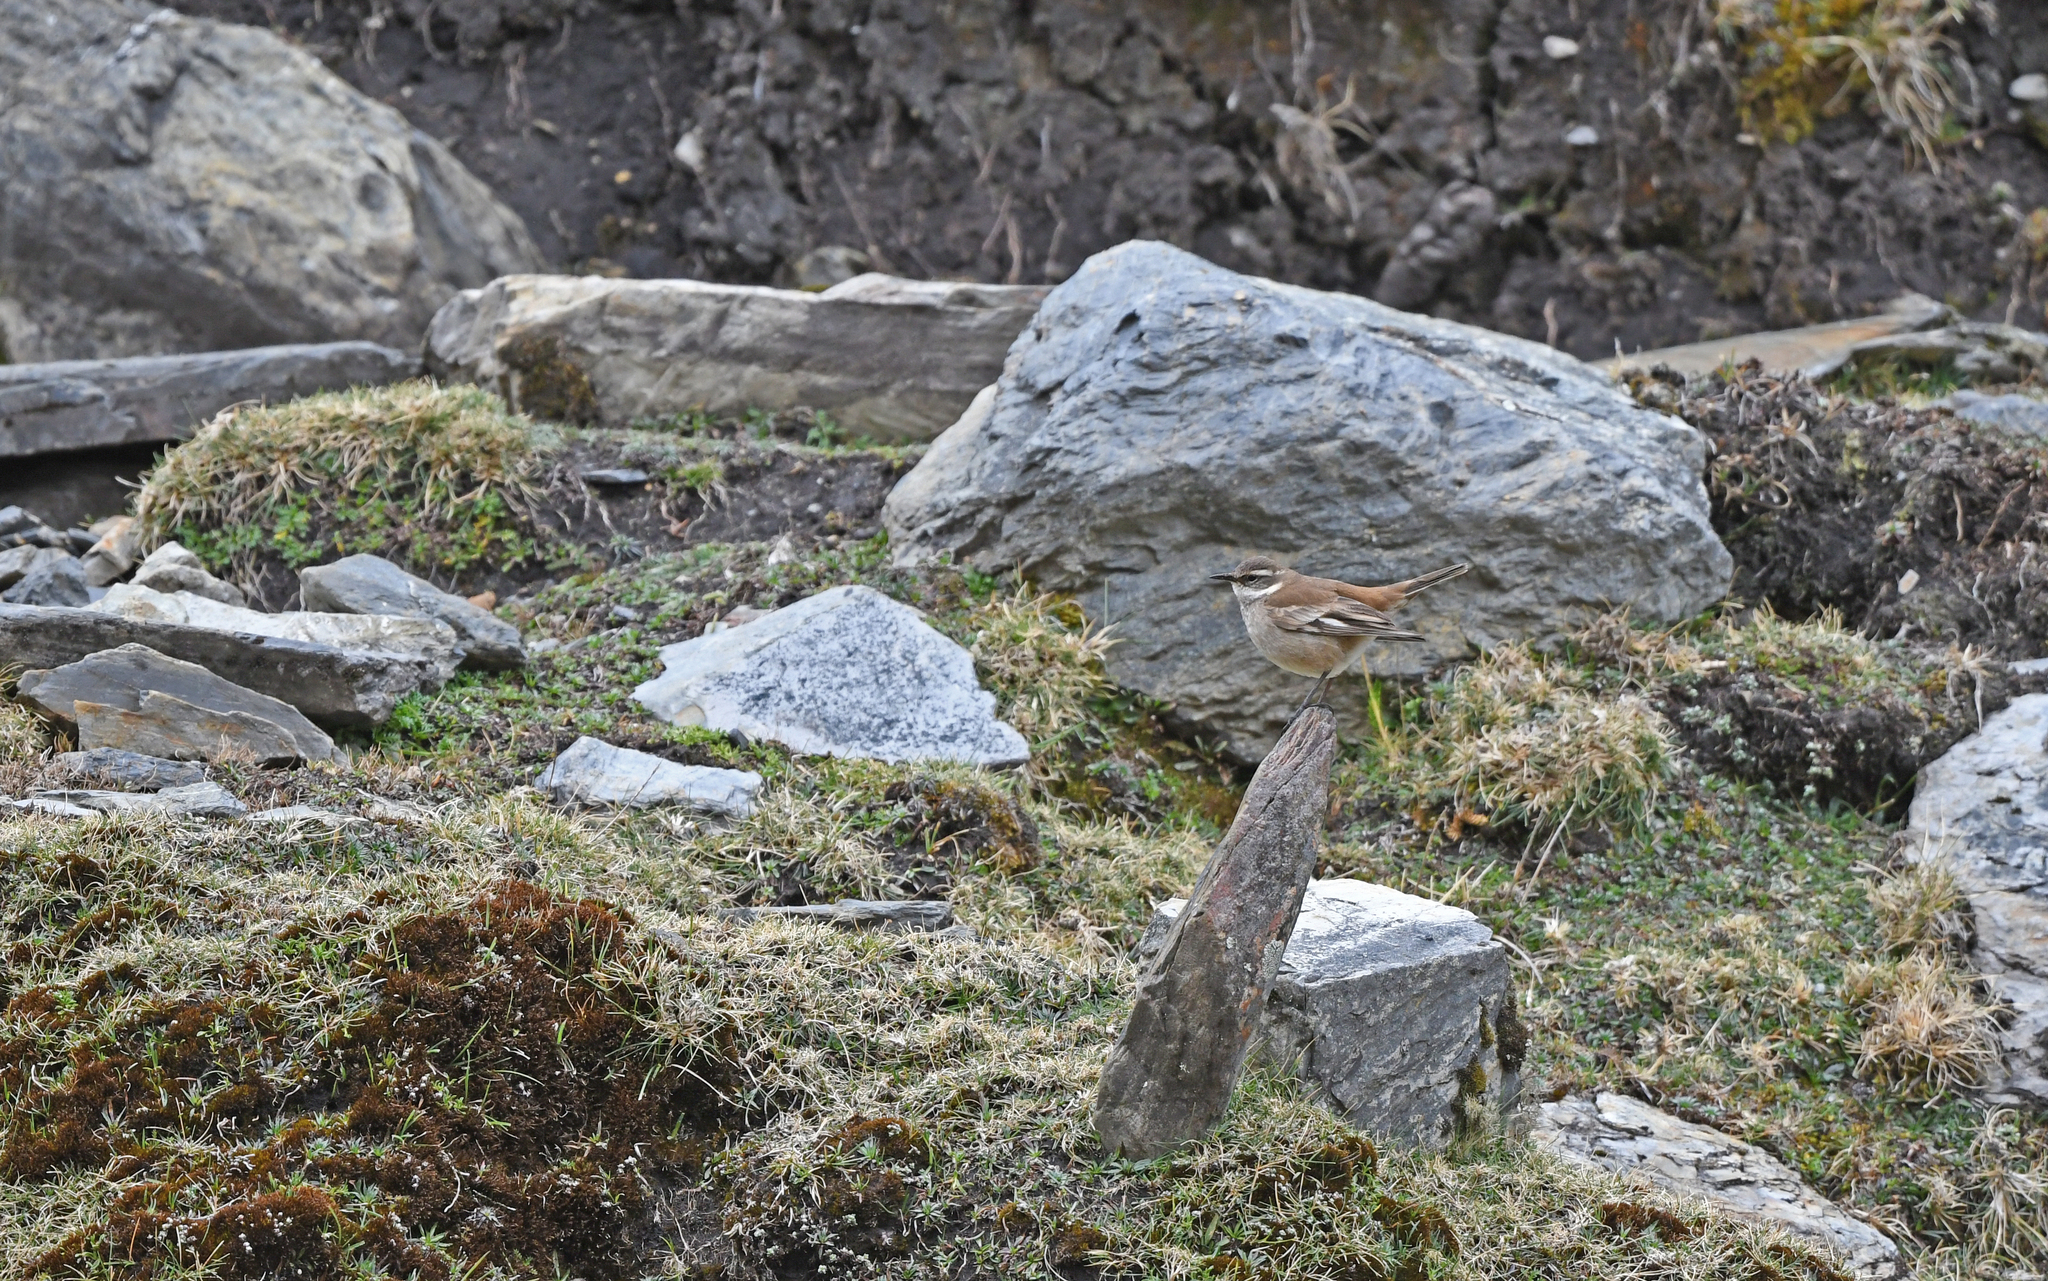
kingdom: Animalia
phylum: Chordata
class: Aves
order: Passeriformes
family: Furnariidae
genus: Cinclodes
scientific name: Cinclodes fuscus
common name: Buff-winged cinclodes
